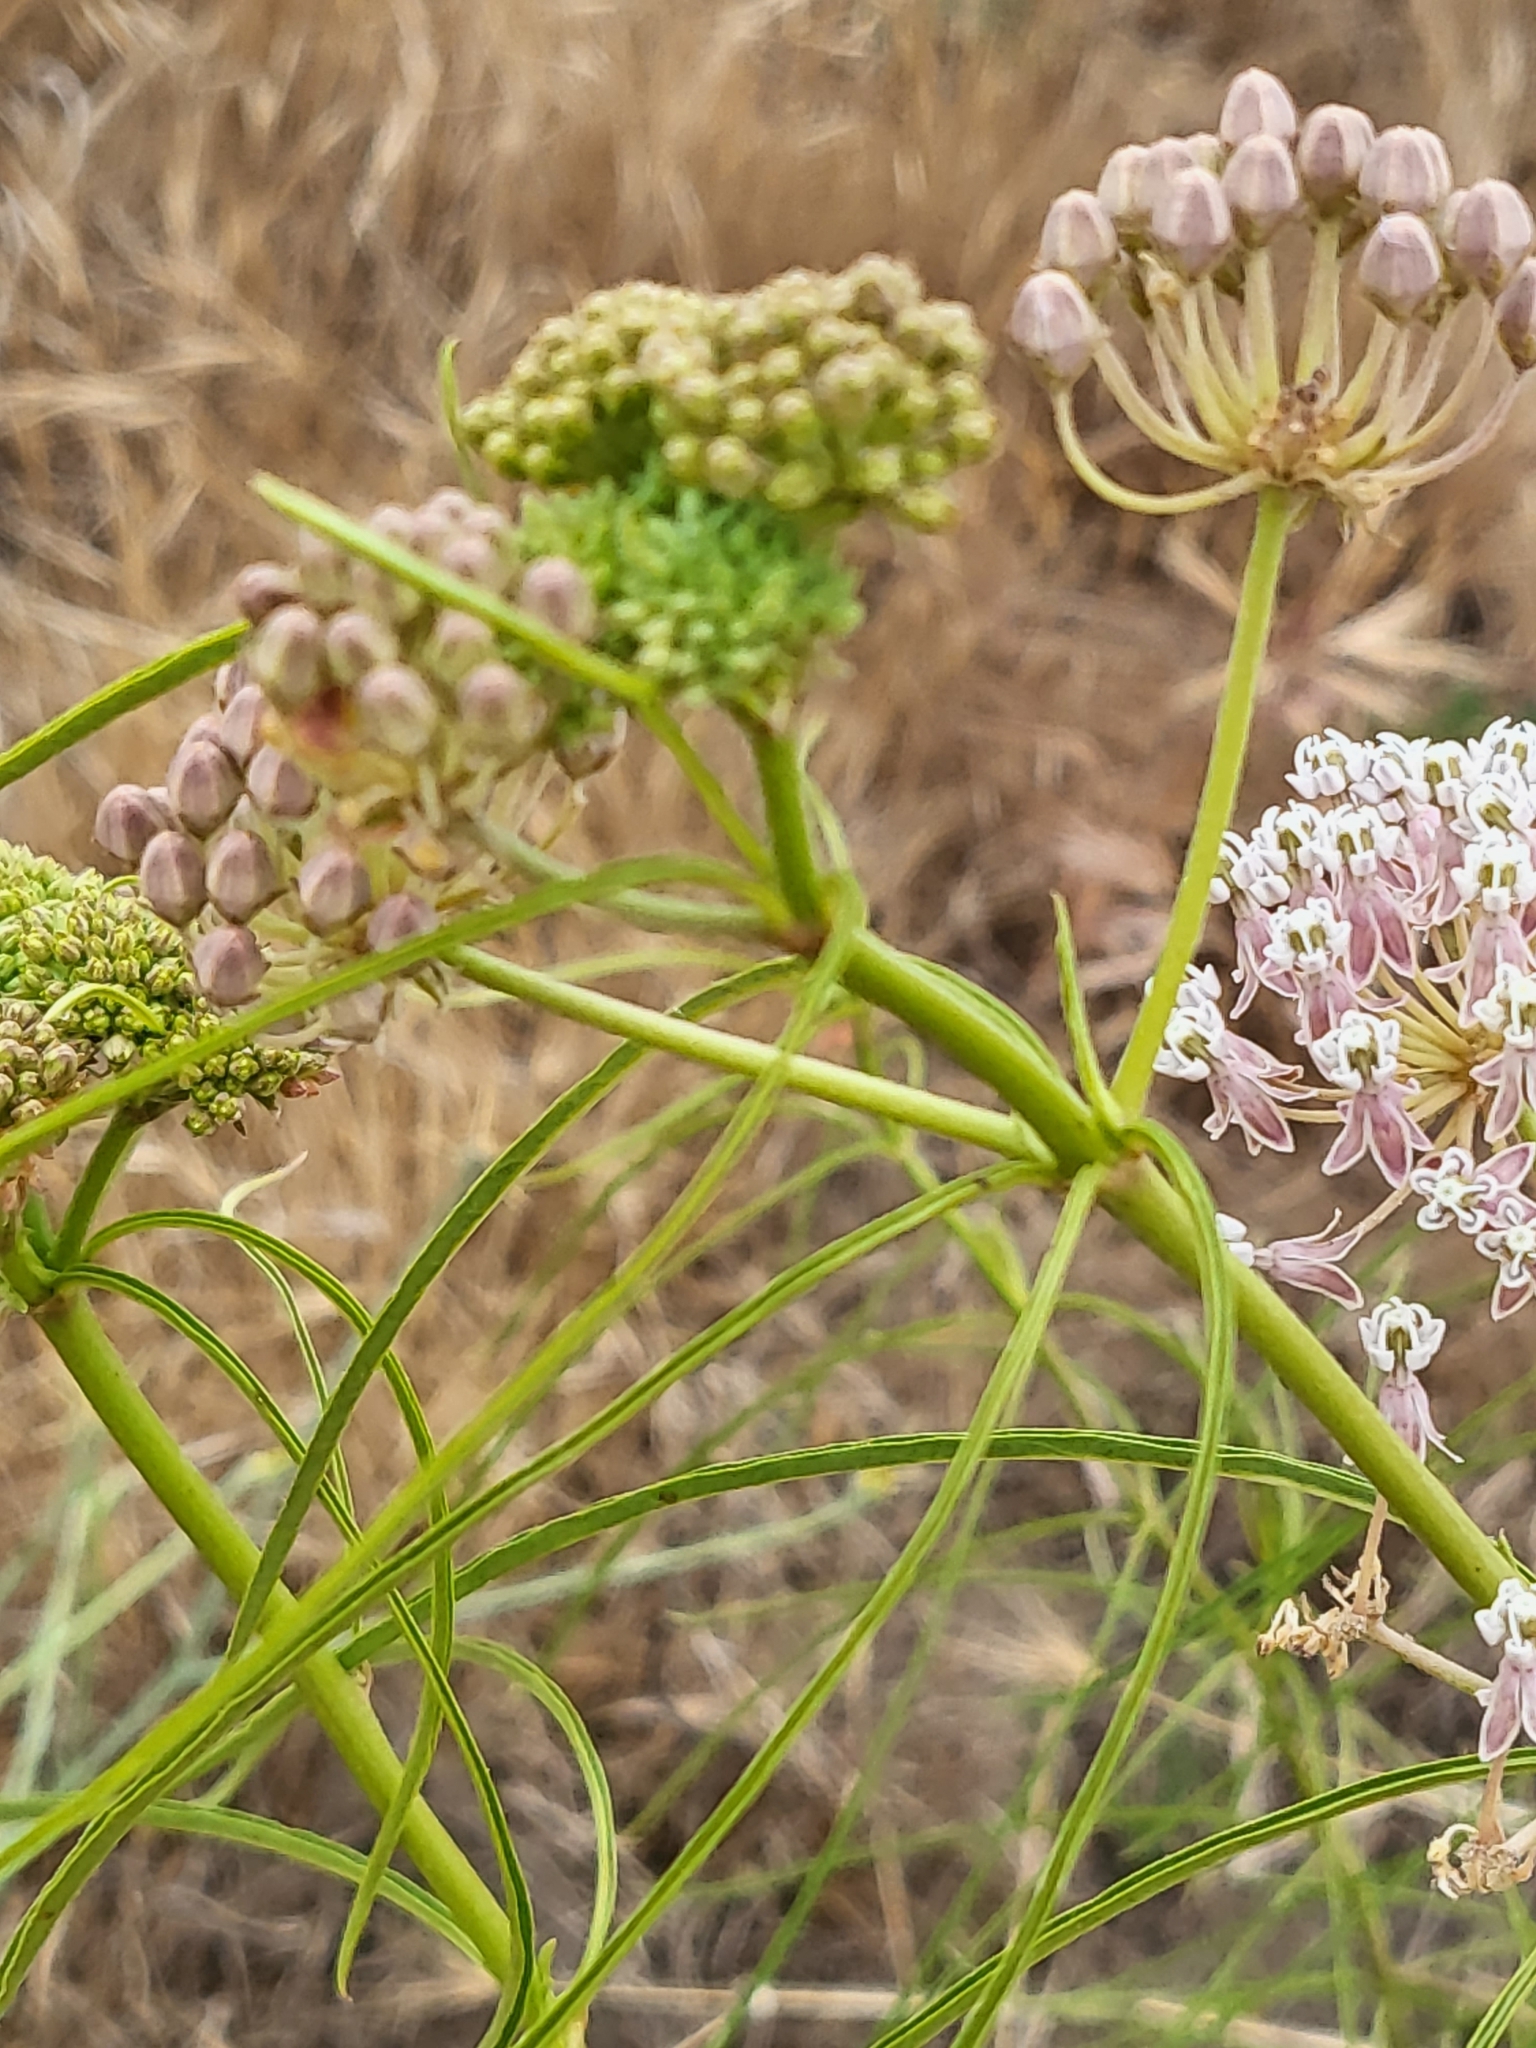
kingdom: Plantae
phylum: Tracheophyta
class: Magnoliopsida
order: Gentianales
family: Apocynaceae
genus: Asclepias
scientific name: Asclepias fascicularis
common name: Mexican milkweed
